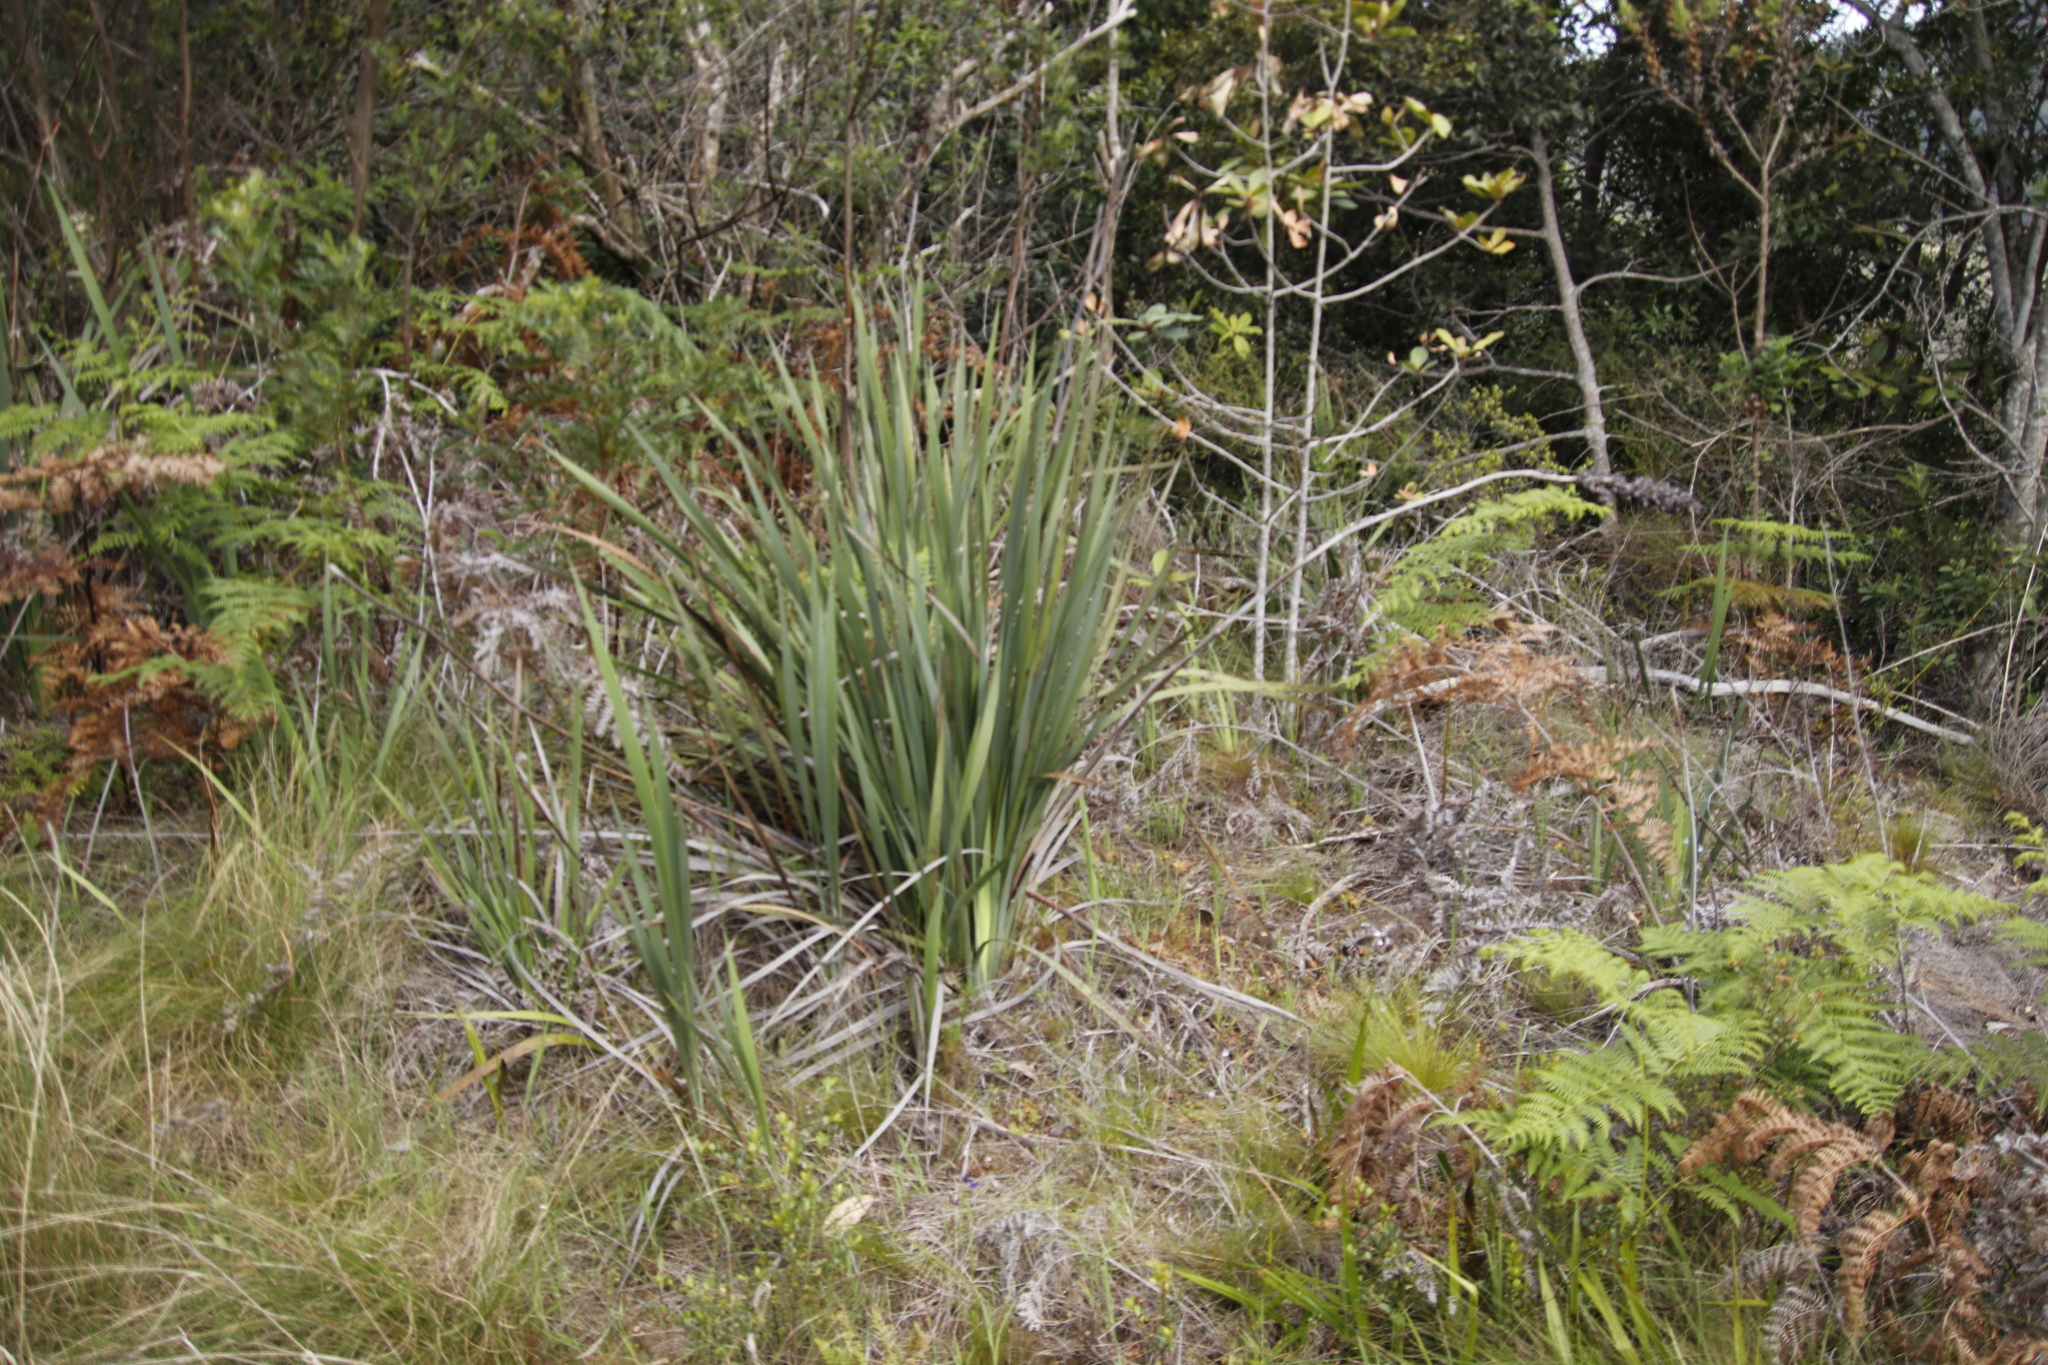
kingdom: Plantae
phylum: Tracheophyta
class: Liliopsida
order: Asparagales
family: Iridaceae
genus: Aristea
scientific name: Aristea capitata
